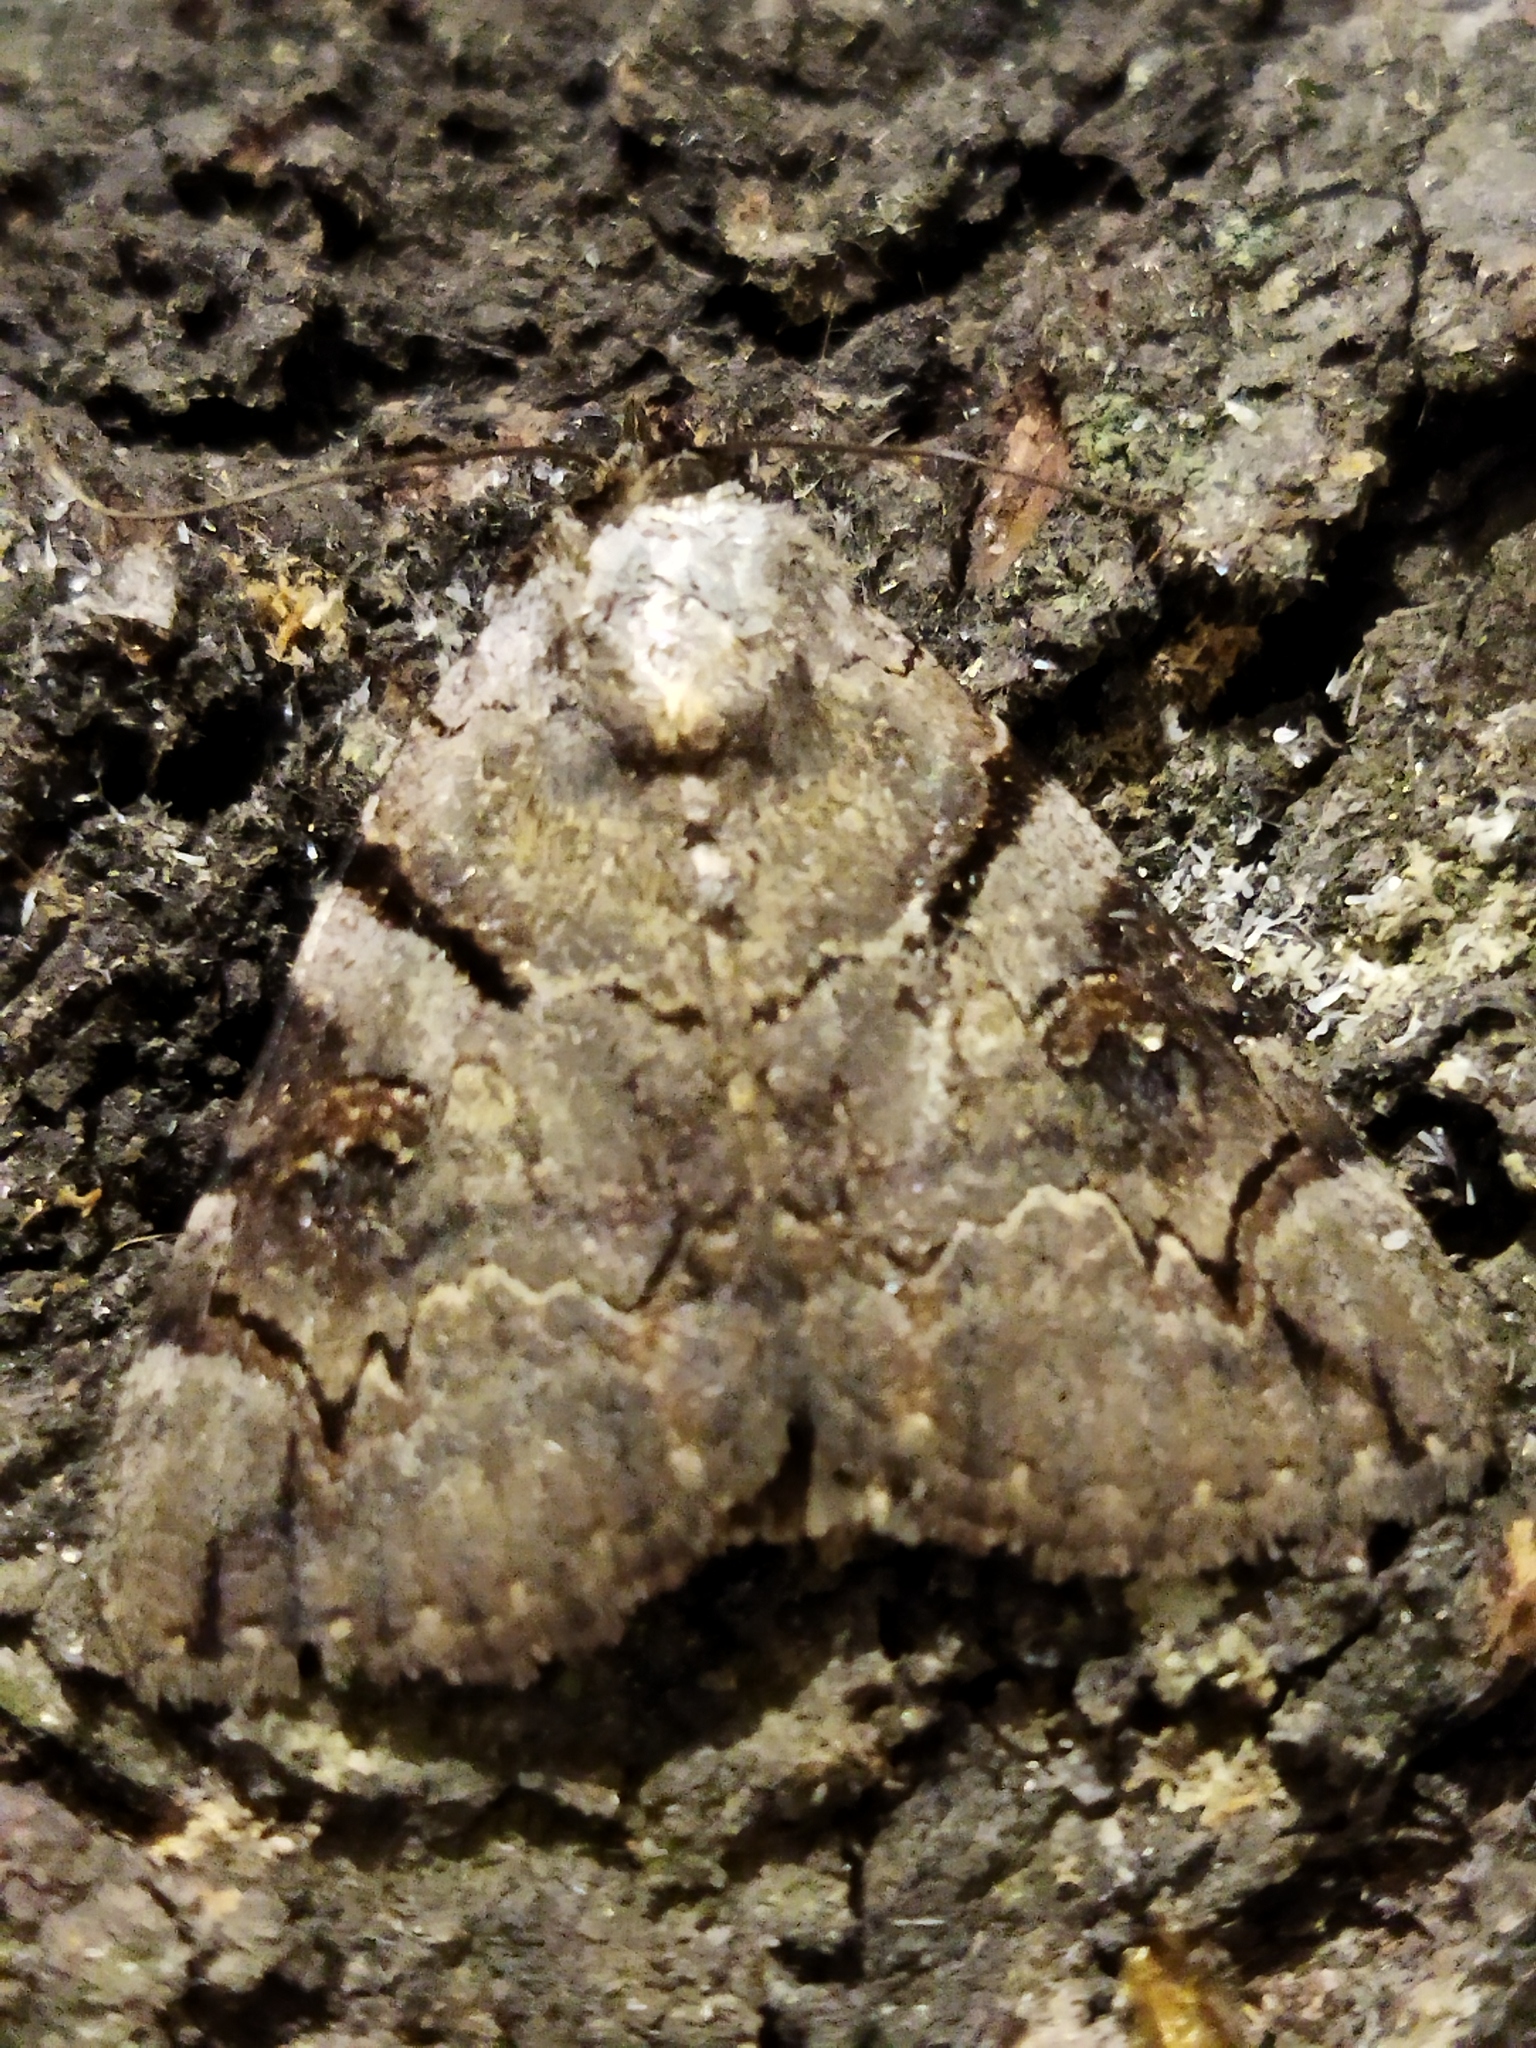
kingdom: Animalia
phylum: Arthropoda
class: Insecta
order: Lepidoptera
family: Erebidae
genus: Catocala
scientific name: Catocala hymenaea
